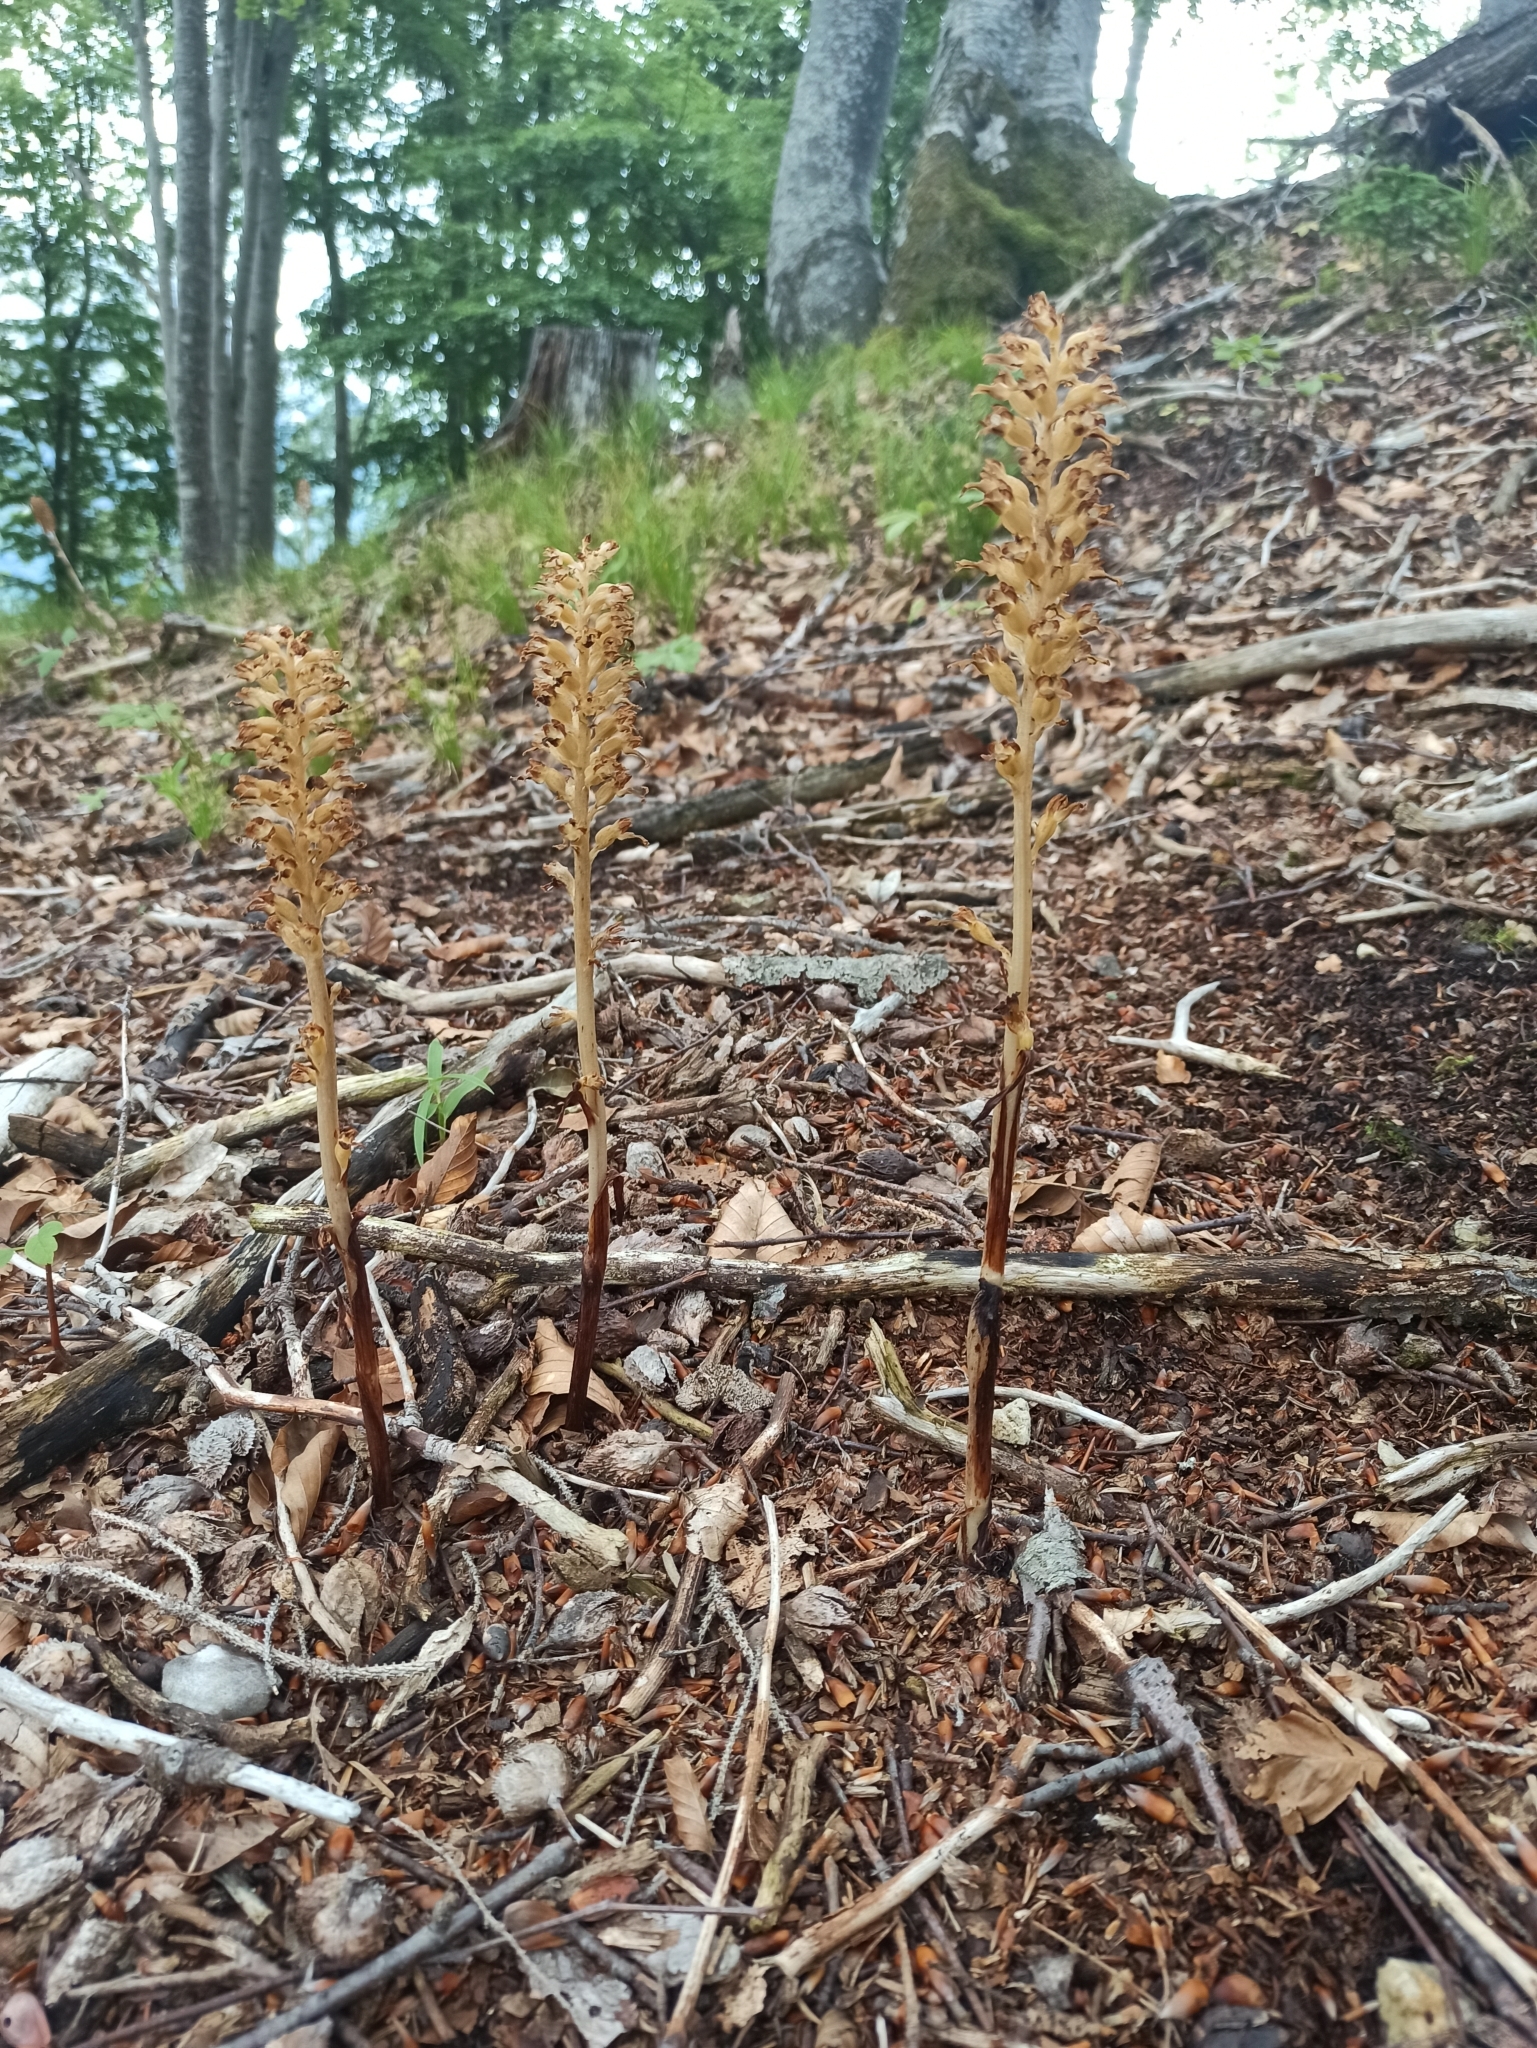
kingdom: Plantae
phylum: Tracheophyta
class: Liliopsida
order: Asparagales
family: Orchidaceae
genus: Neottia
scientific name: Neottia nidus-avis
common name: Bird's-nest orchid
